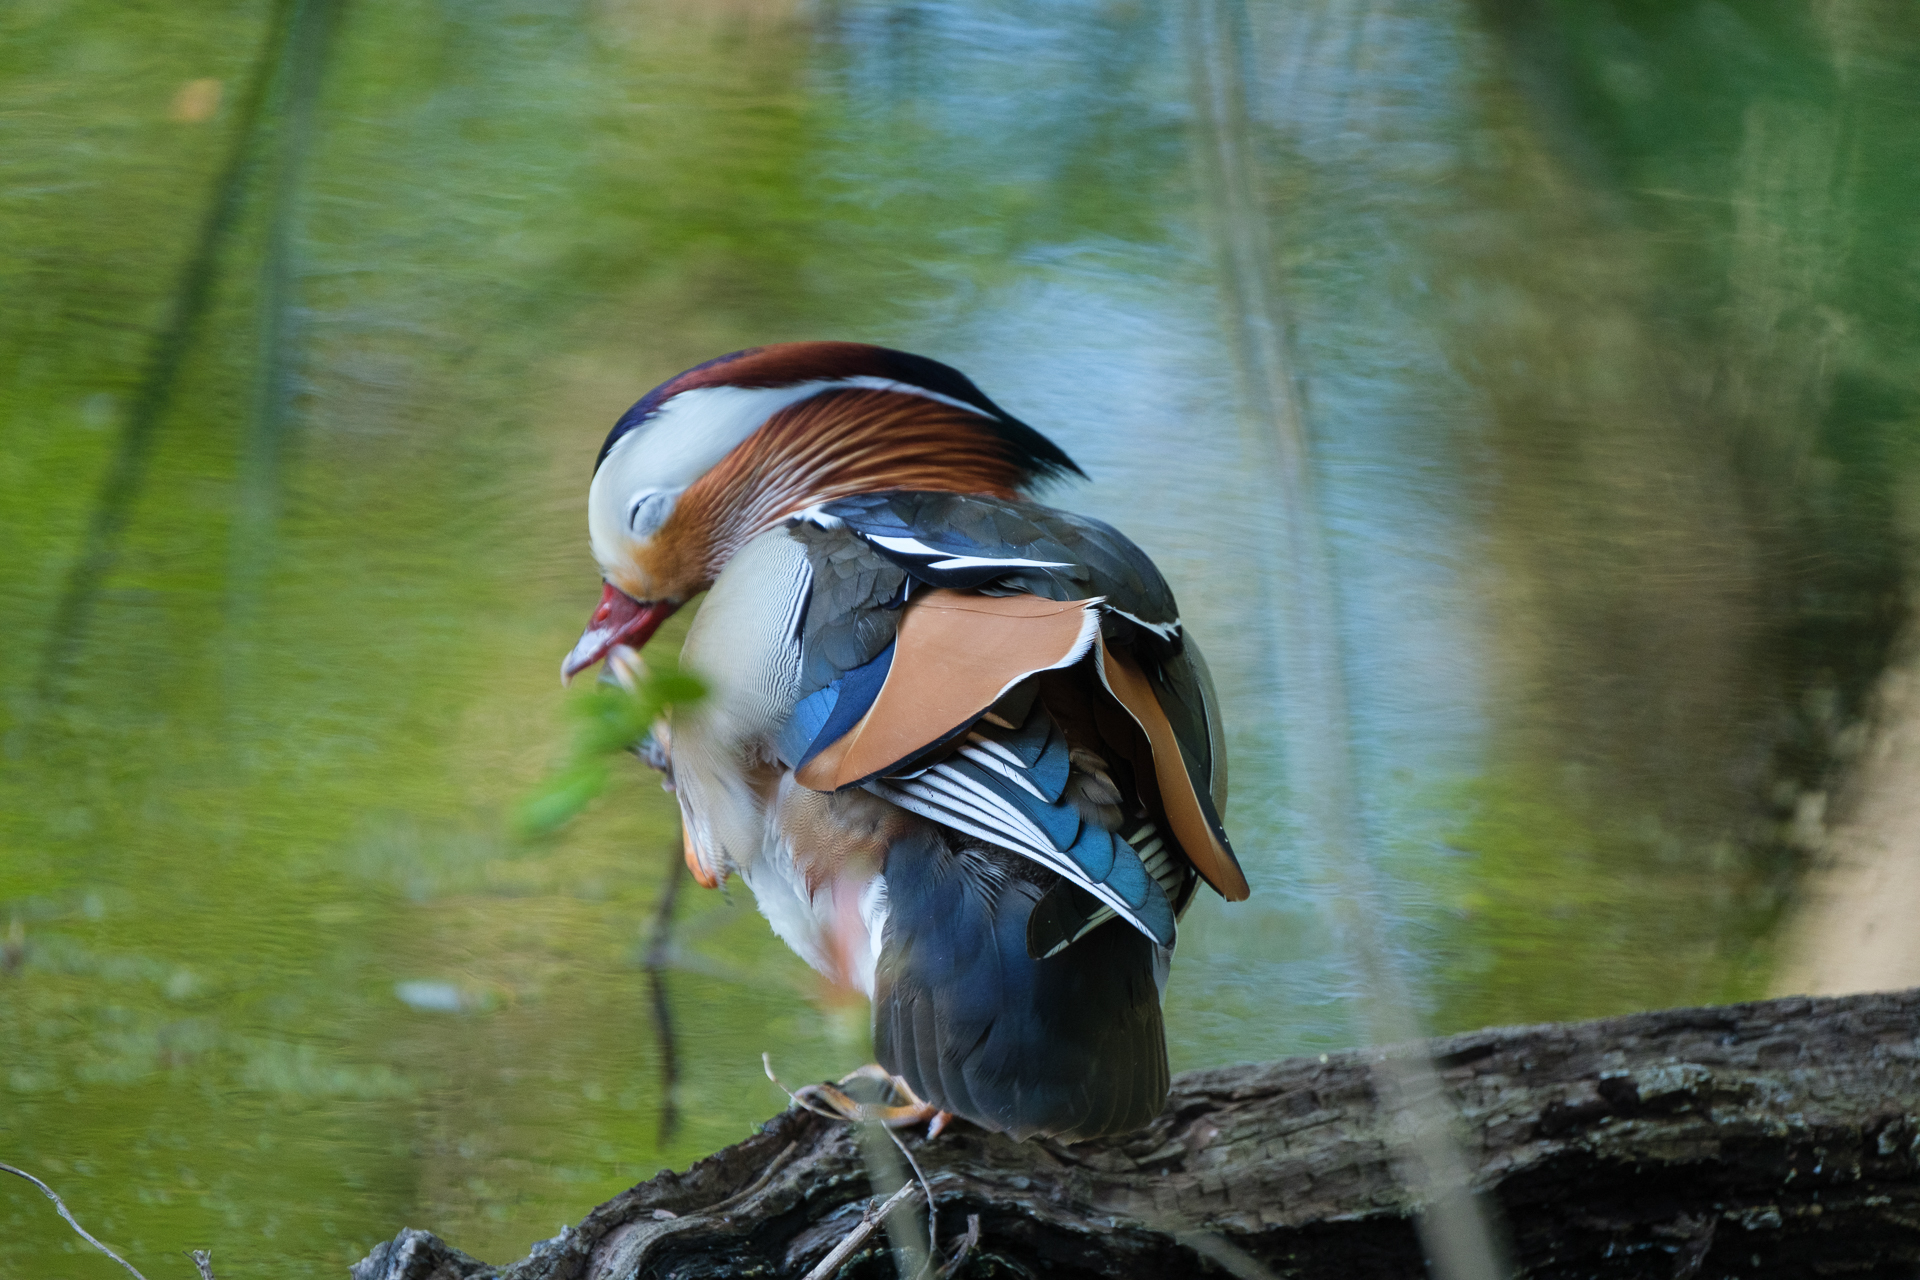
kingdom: Animalia
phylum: Chordata
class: Aves
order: Anseriformes
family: Anatidae
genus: Aix
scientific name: Aix galericulata
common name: Mandarin duck
